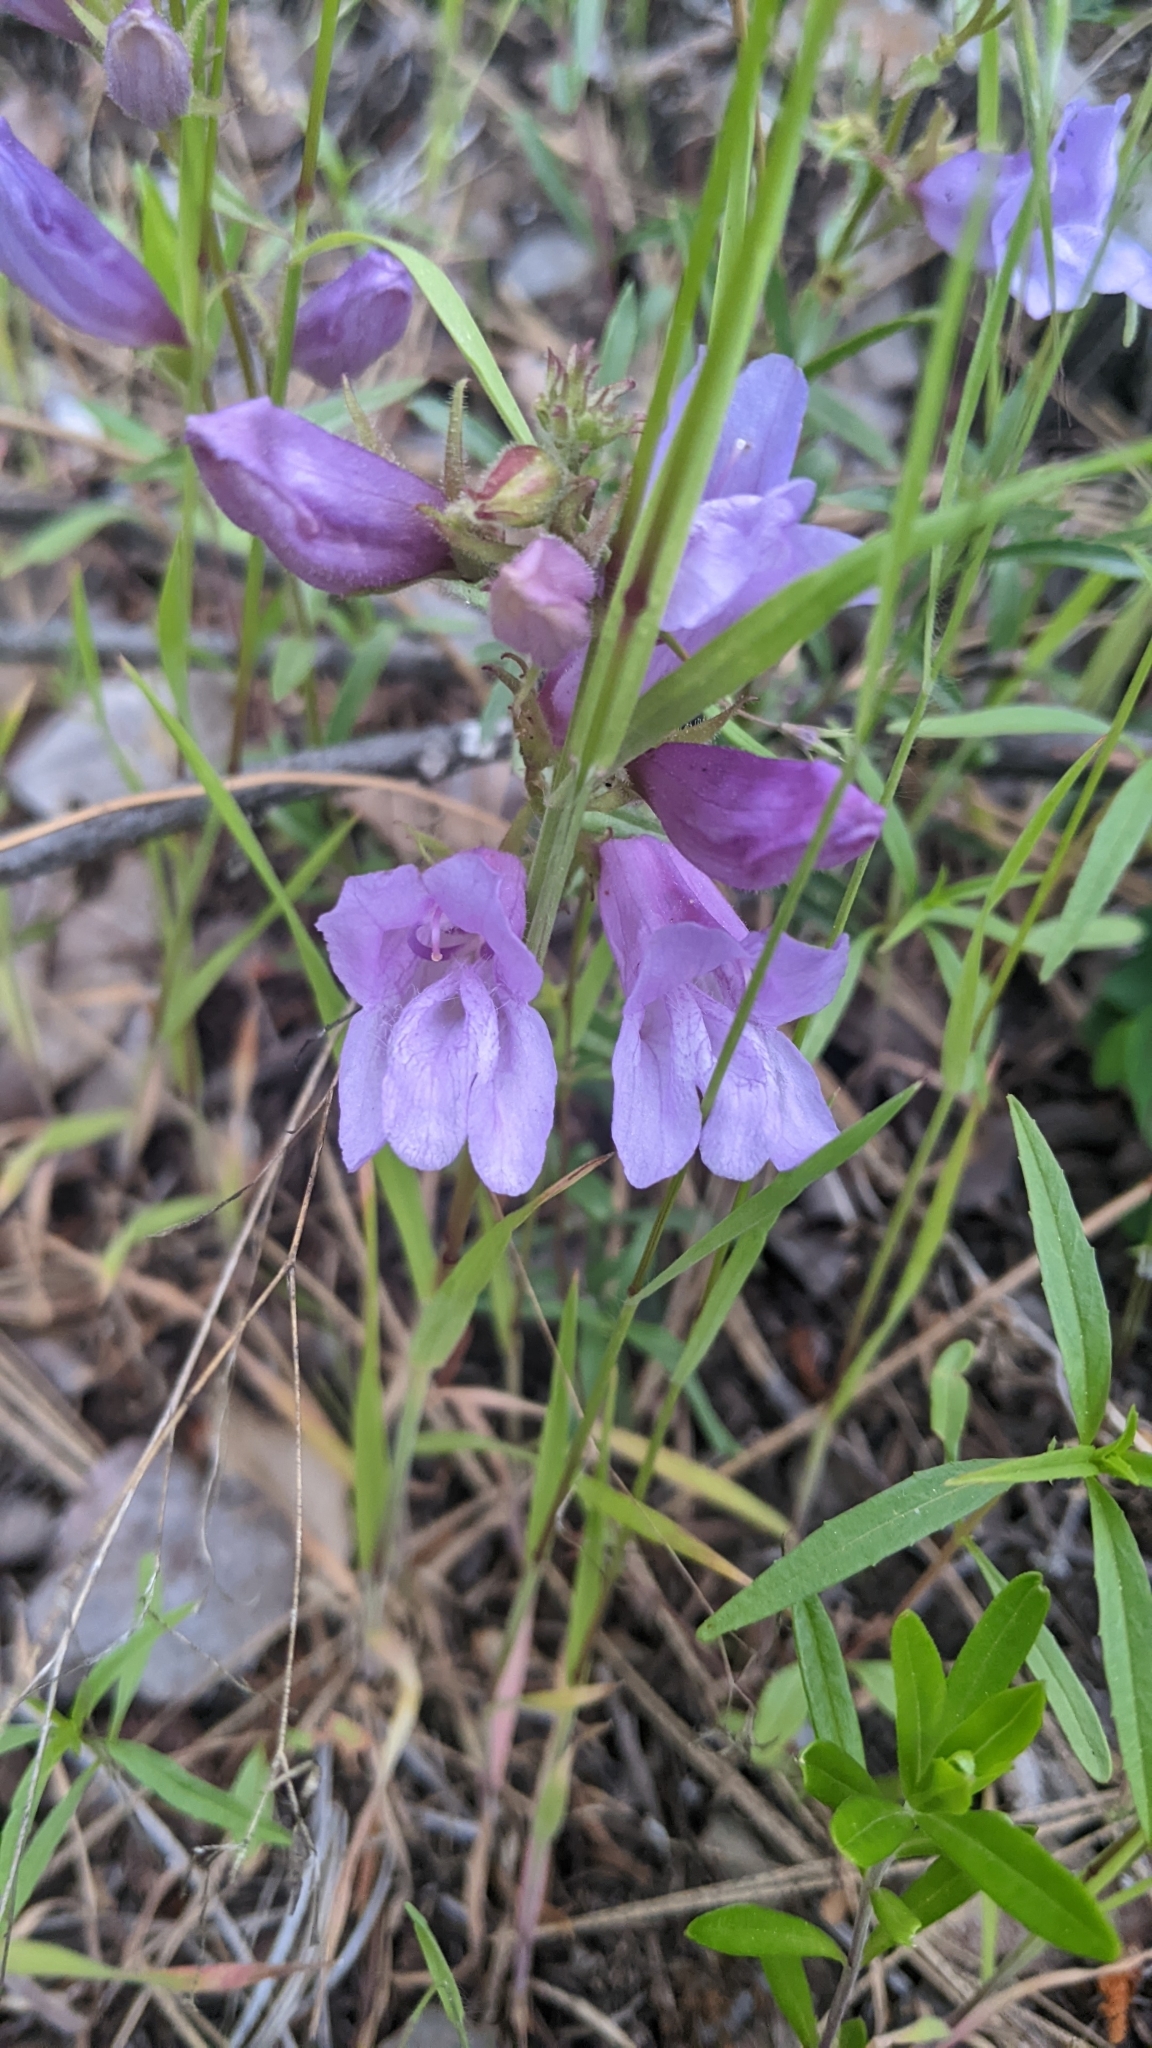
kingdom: Plantae
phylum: Tracheophyta
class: Magnoliopsida
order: Lamiales
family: Plantaginaceae
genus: Penstemon
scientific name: Penstemon fruticosus
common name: Bush penstemon
